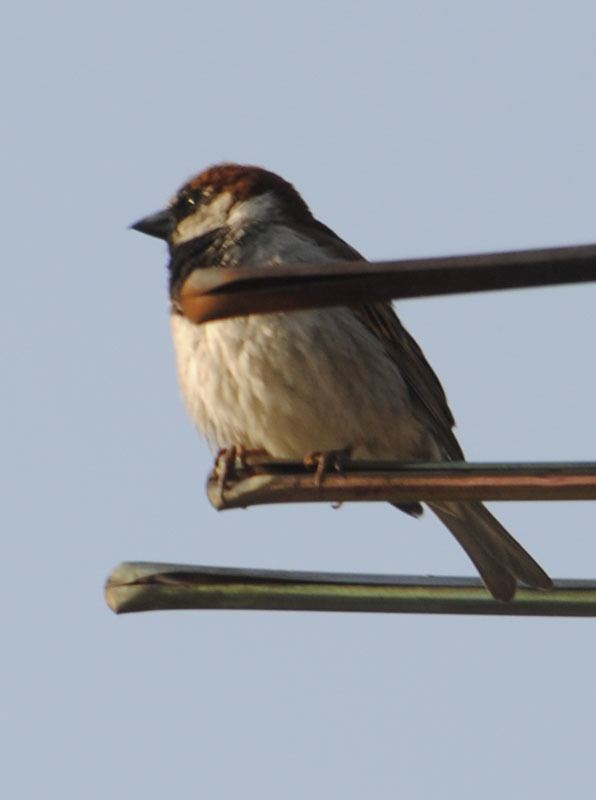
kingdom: Animalia
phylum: Chordata
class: Aves
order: Passeriformes
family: Passeridae
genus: Passer
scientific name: Passer domesticus
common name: House sparrow
